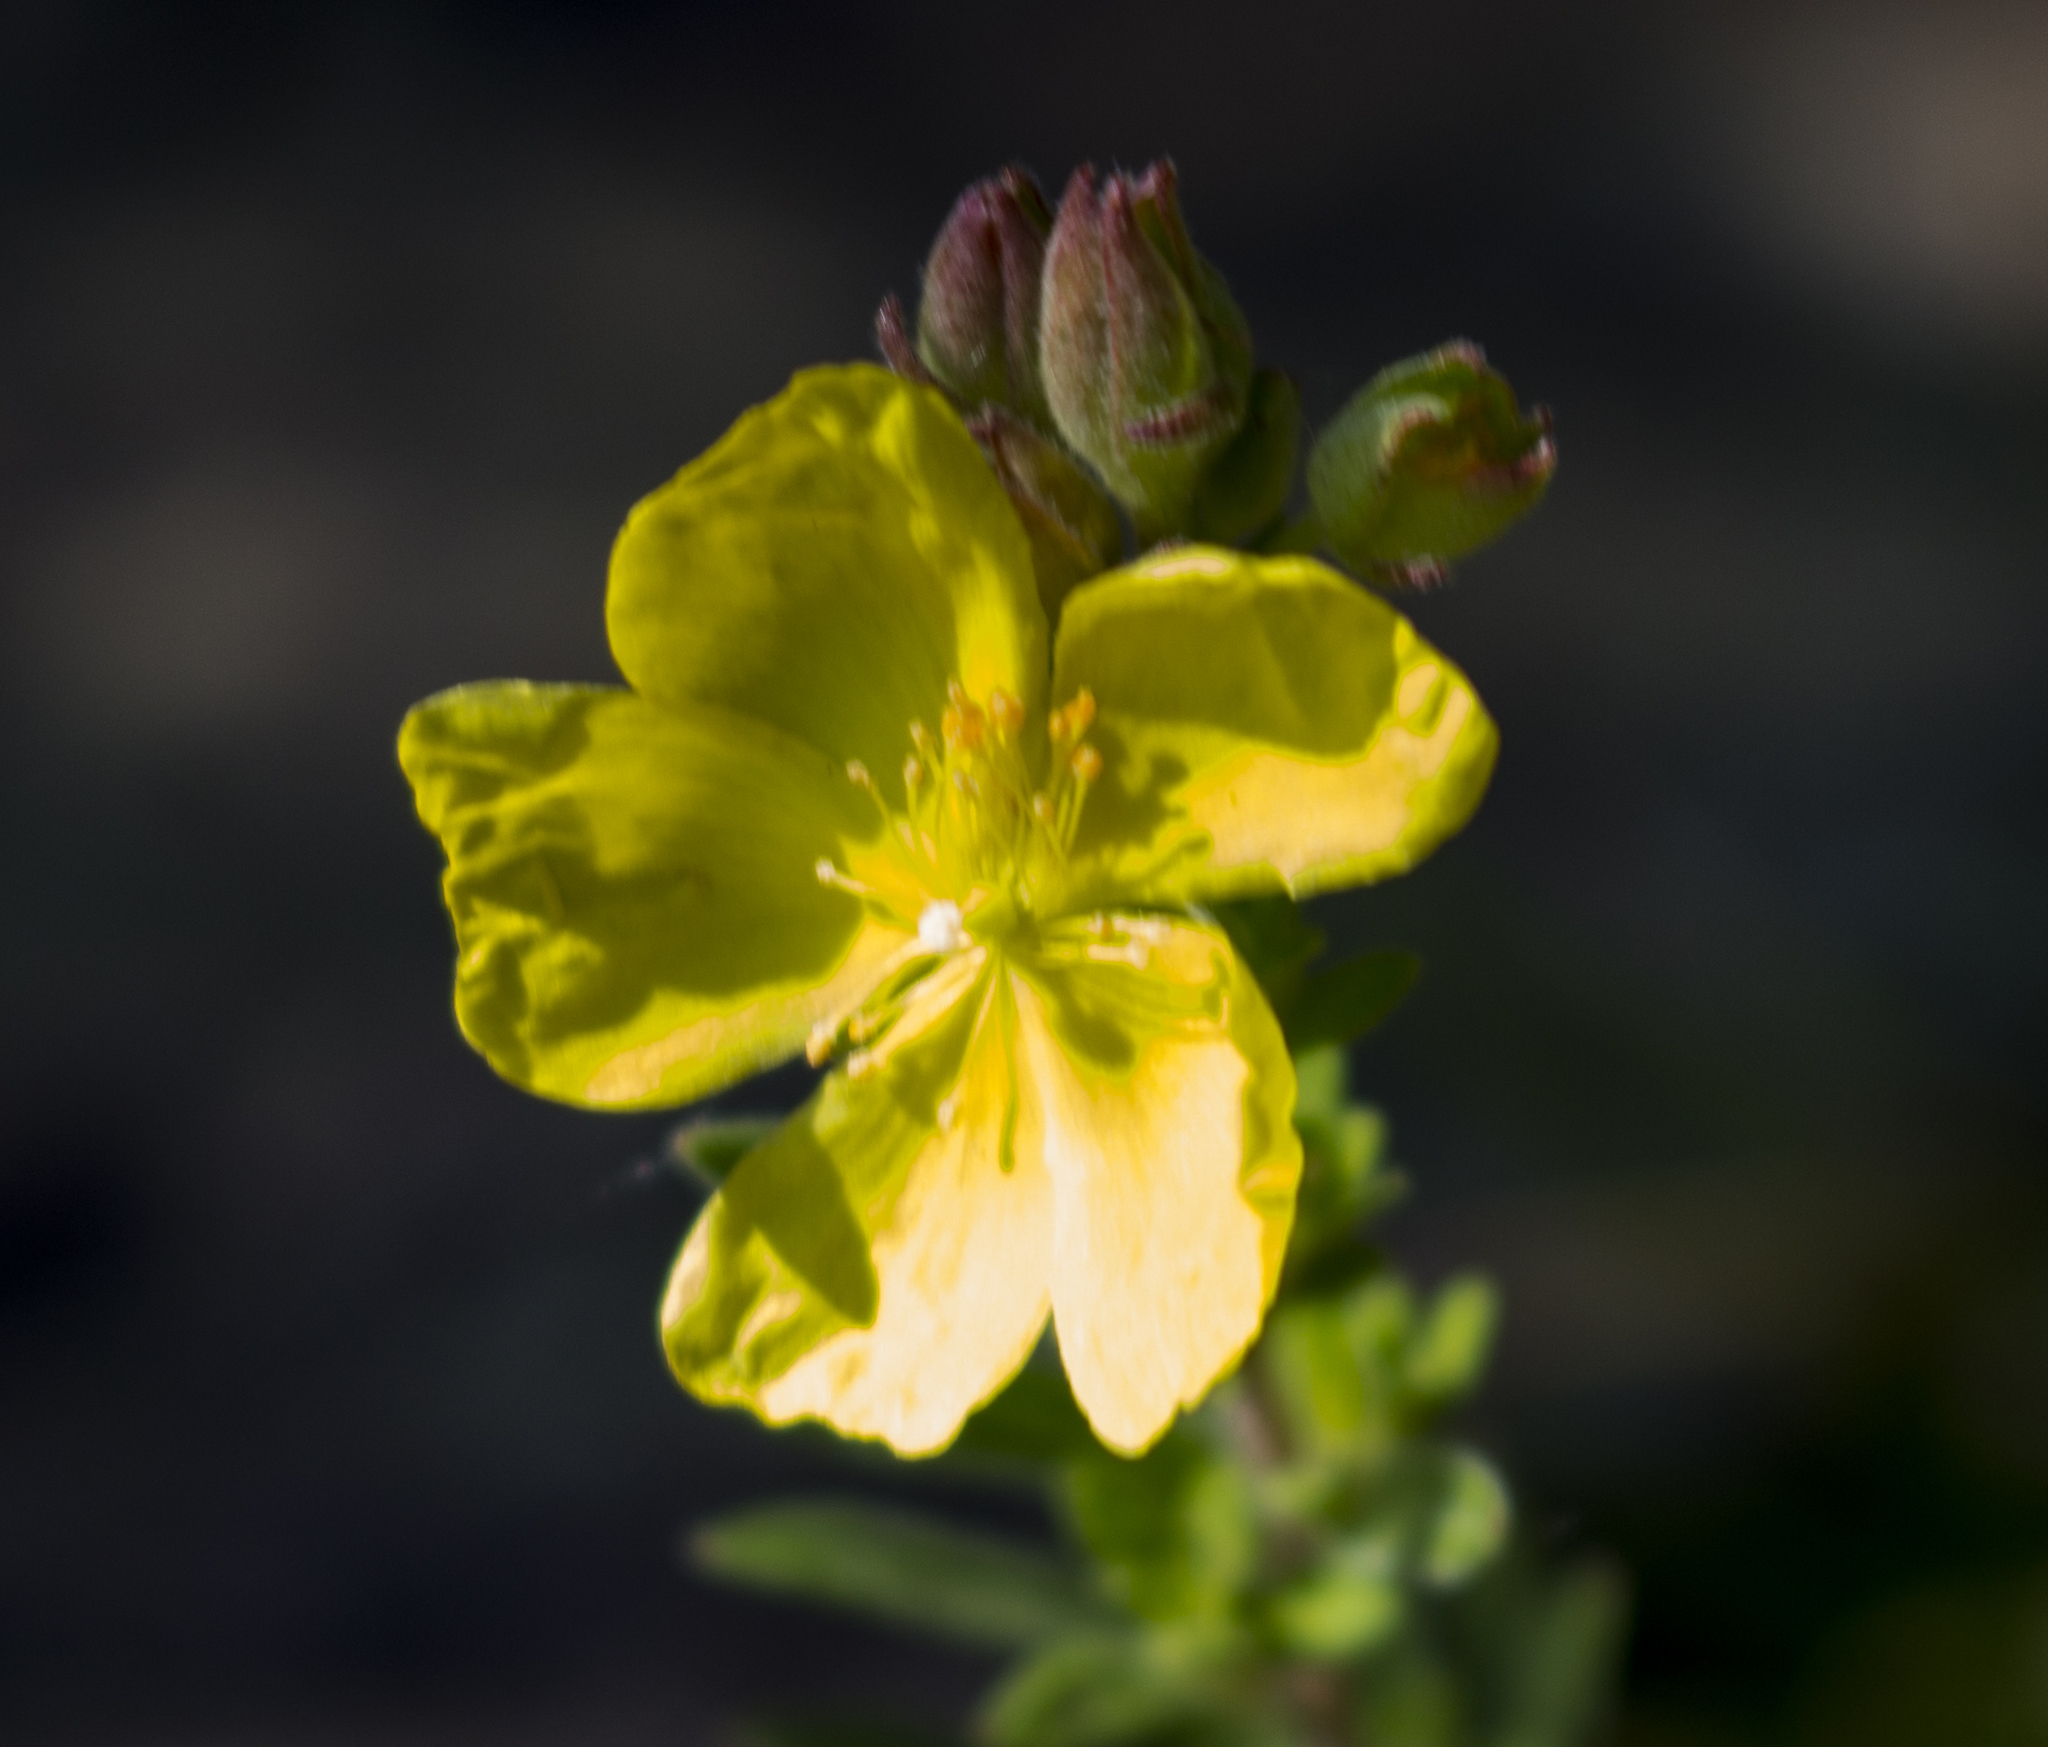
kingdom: Plantae
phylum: Tracheophyta
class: Magnoliopsida
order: Malvales
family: Cistaceae
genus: Crocanthemum
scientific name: Crocanthemum bicknellii
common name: Hoary frostweed
